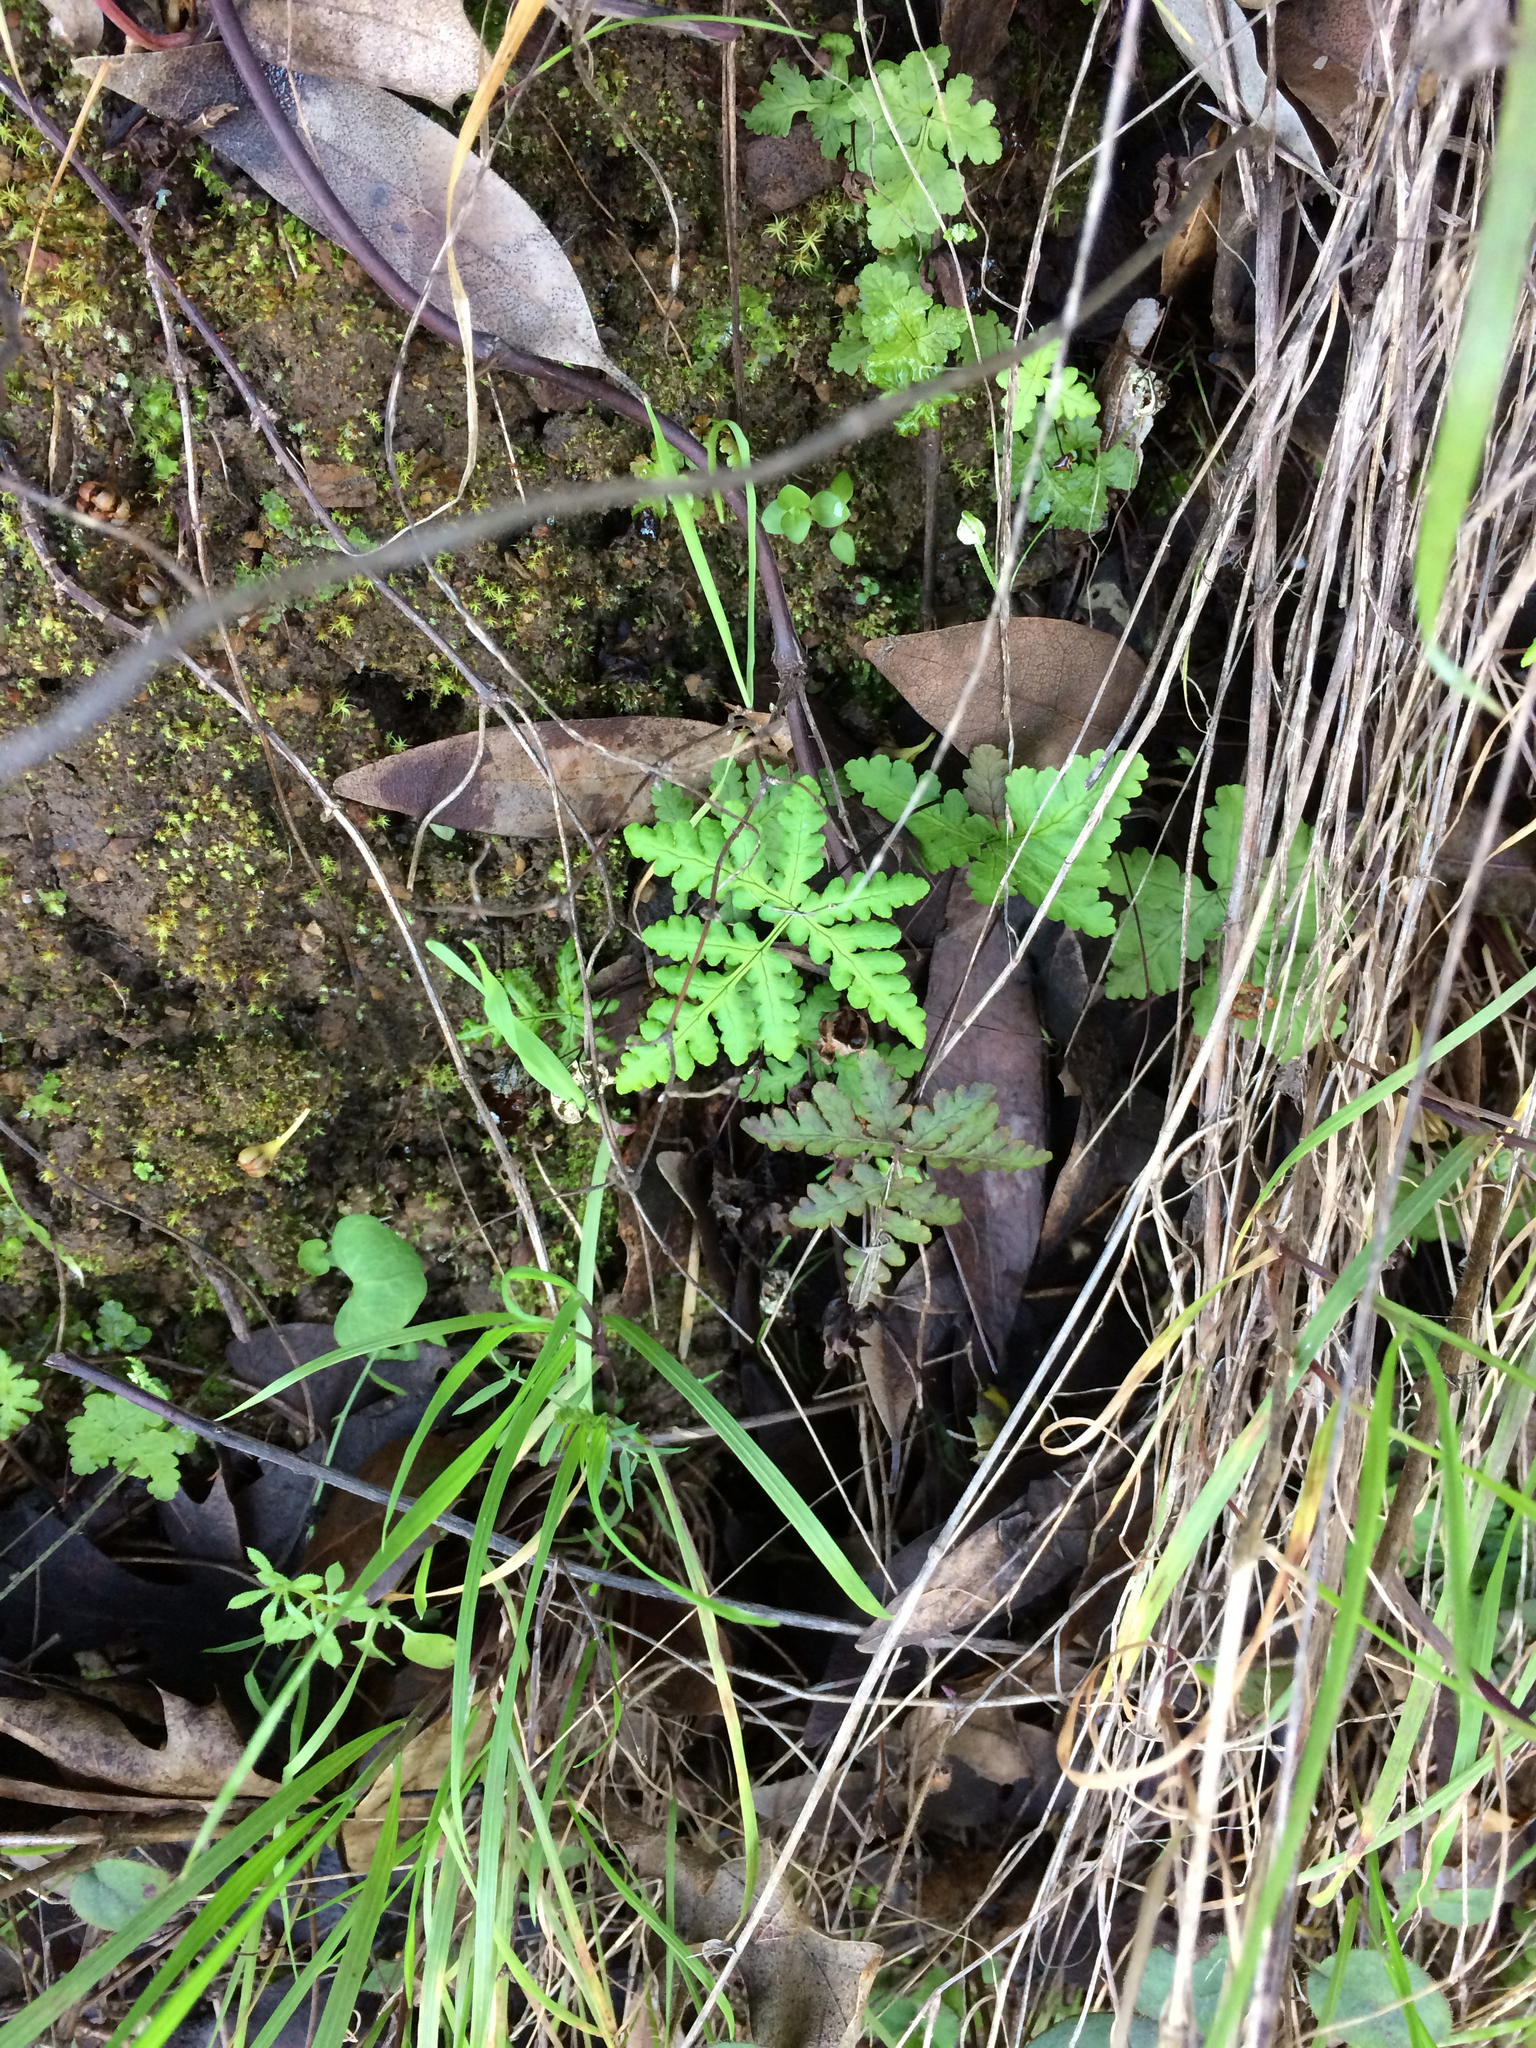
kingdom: Plantae
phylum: Tracheophyta
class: Polypodiopsida
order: Polypodiales
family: Pteridaceae
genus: Pentagramma
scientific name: Pentagramma triangularis
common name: Gold fern
